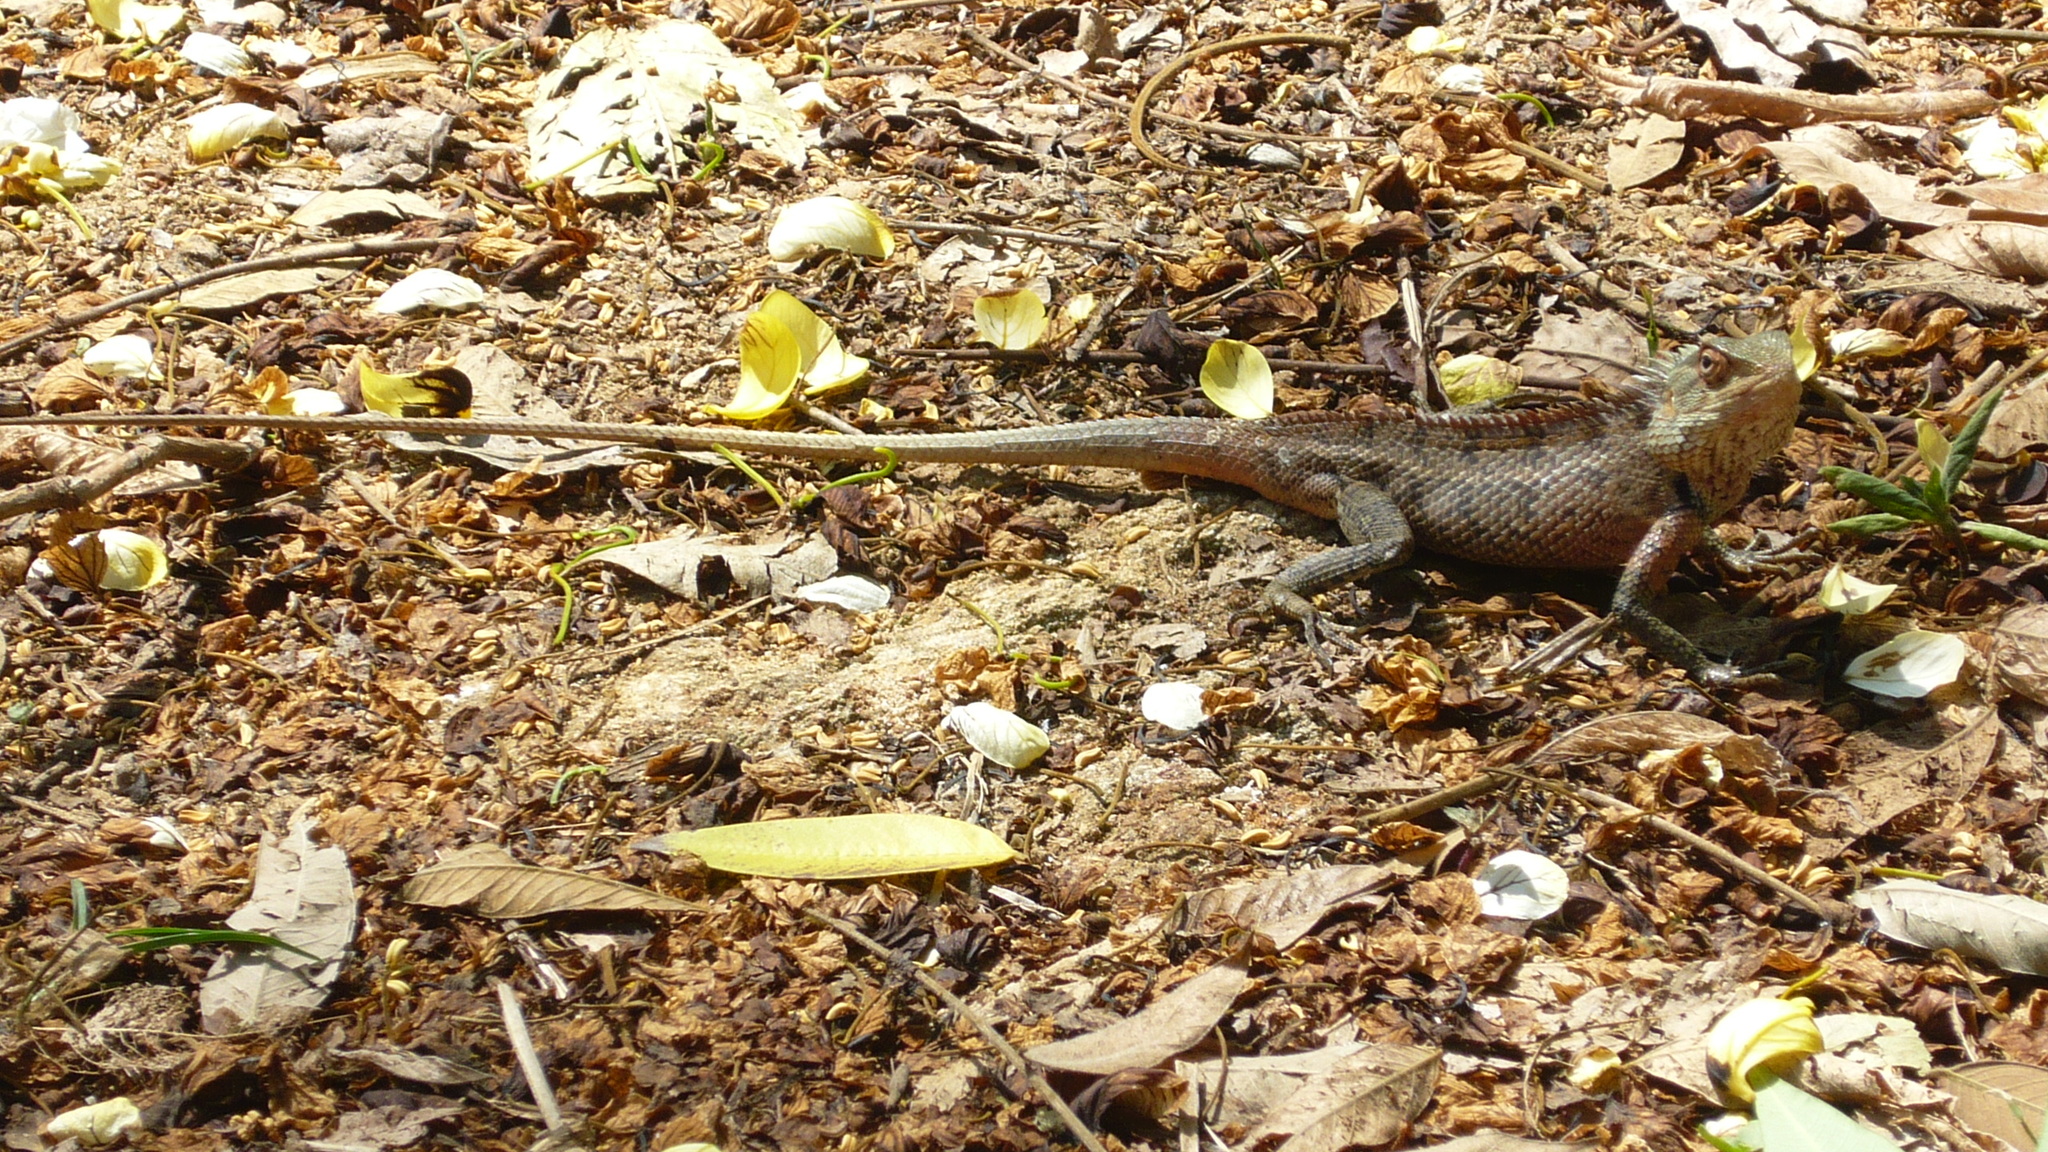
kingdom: Animalia
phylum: Chordata
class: Squamata
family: Agamidae
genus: Calotes
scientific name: Calotes versicolor
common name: Oriental garden lizard
